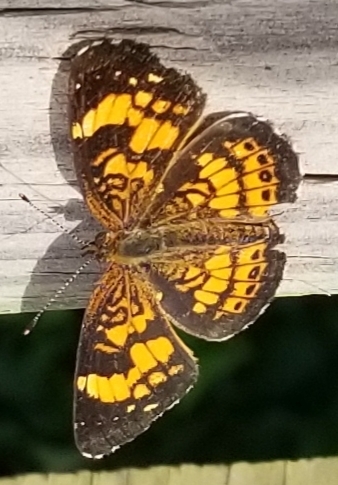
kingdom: Animalia
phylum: Arthropoda
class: Insecta
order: Lepidoptera
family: Nymphalidae
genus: Chlosyne
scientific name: Chlosyne nycteis
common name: Silvery checkerspot
